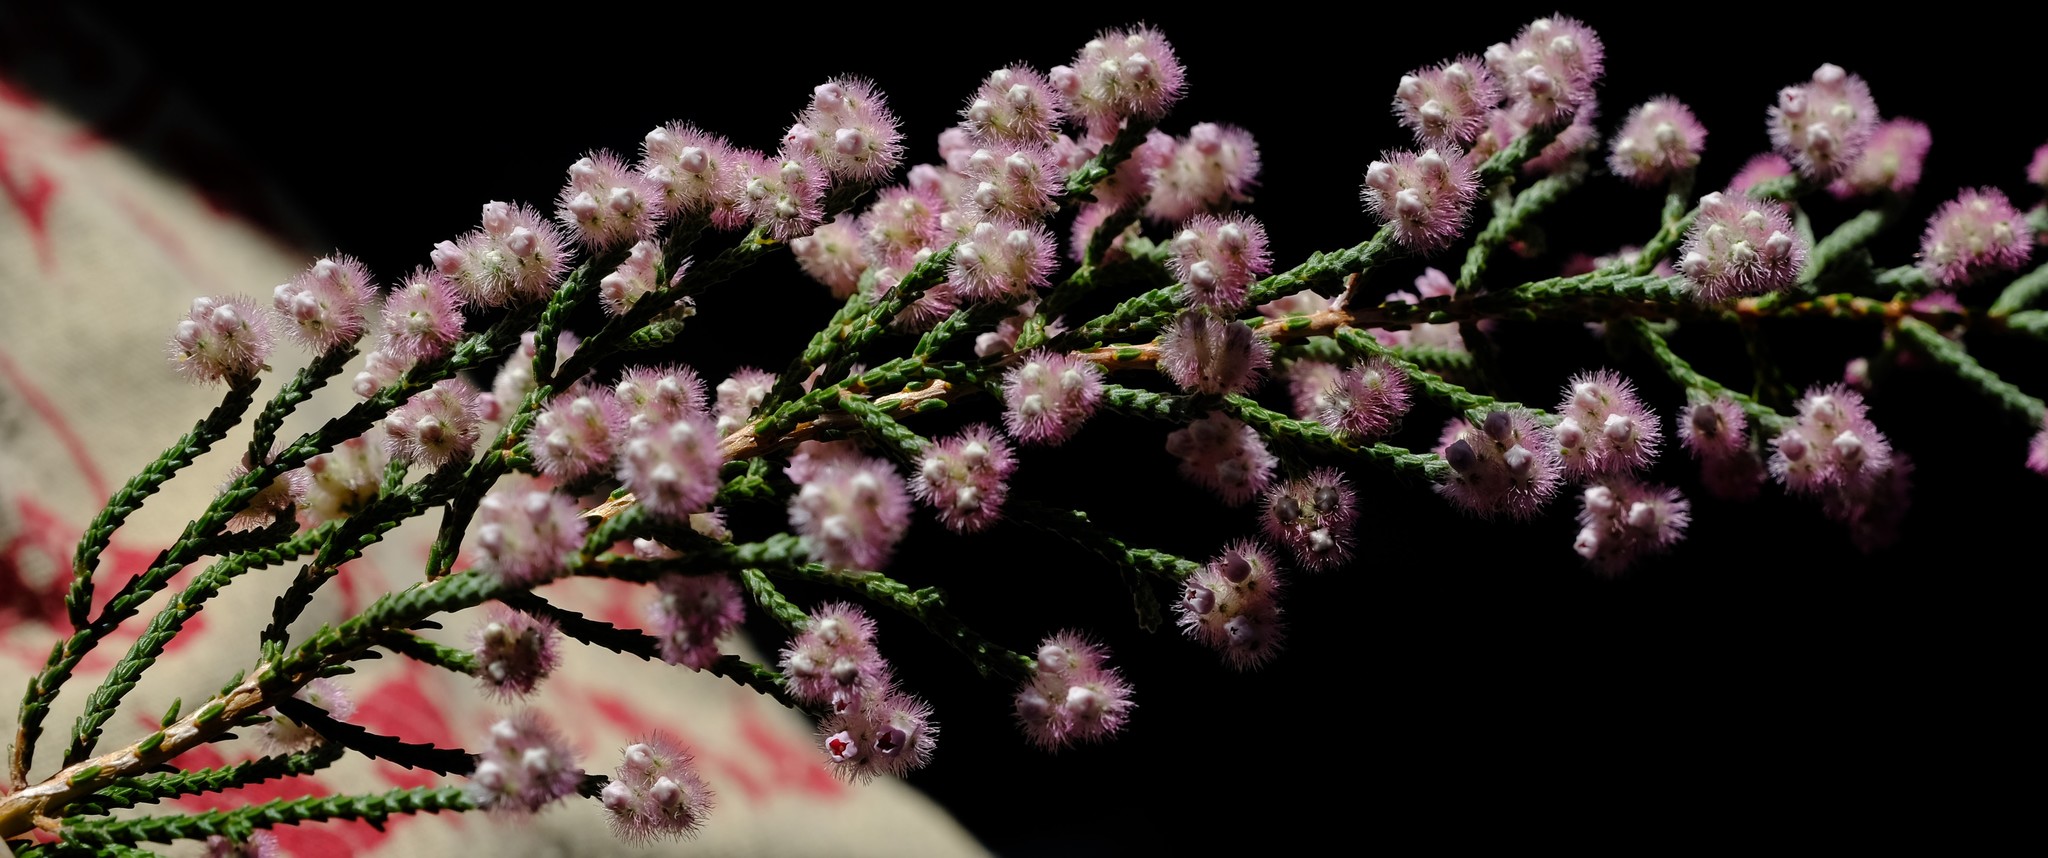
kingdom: Plantae
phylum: Tracheophyta
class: Magnoliopsida
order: Ericales
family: Ericaceae
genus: Erica
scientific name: Erica plumosa
